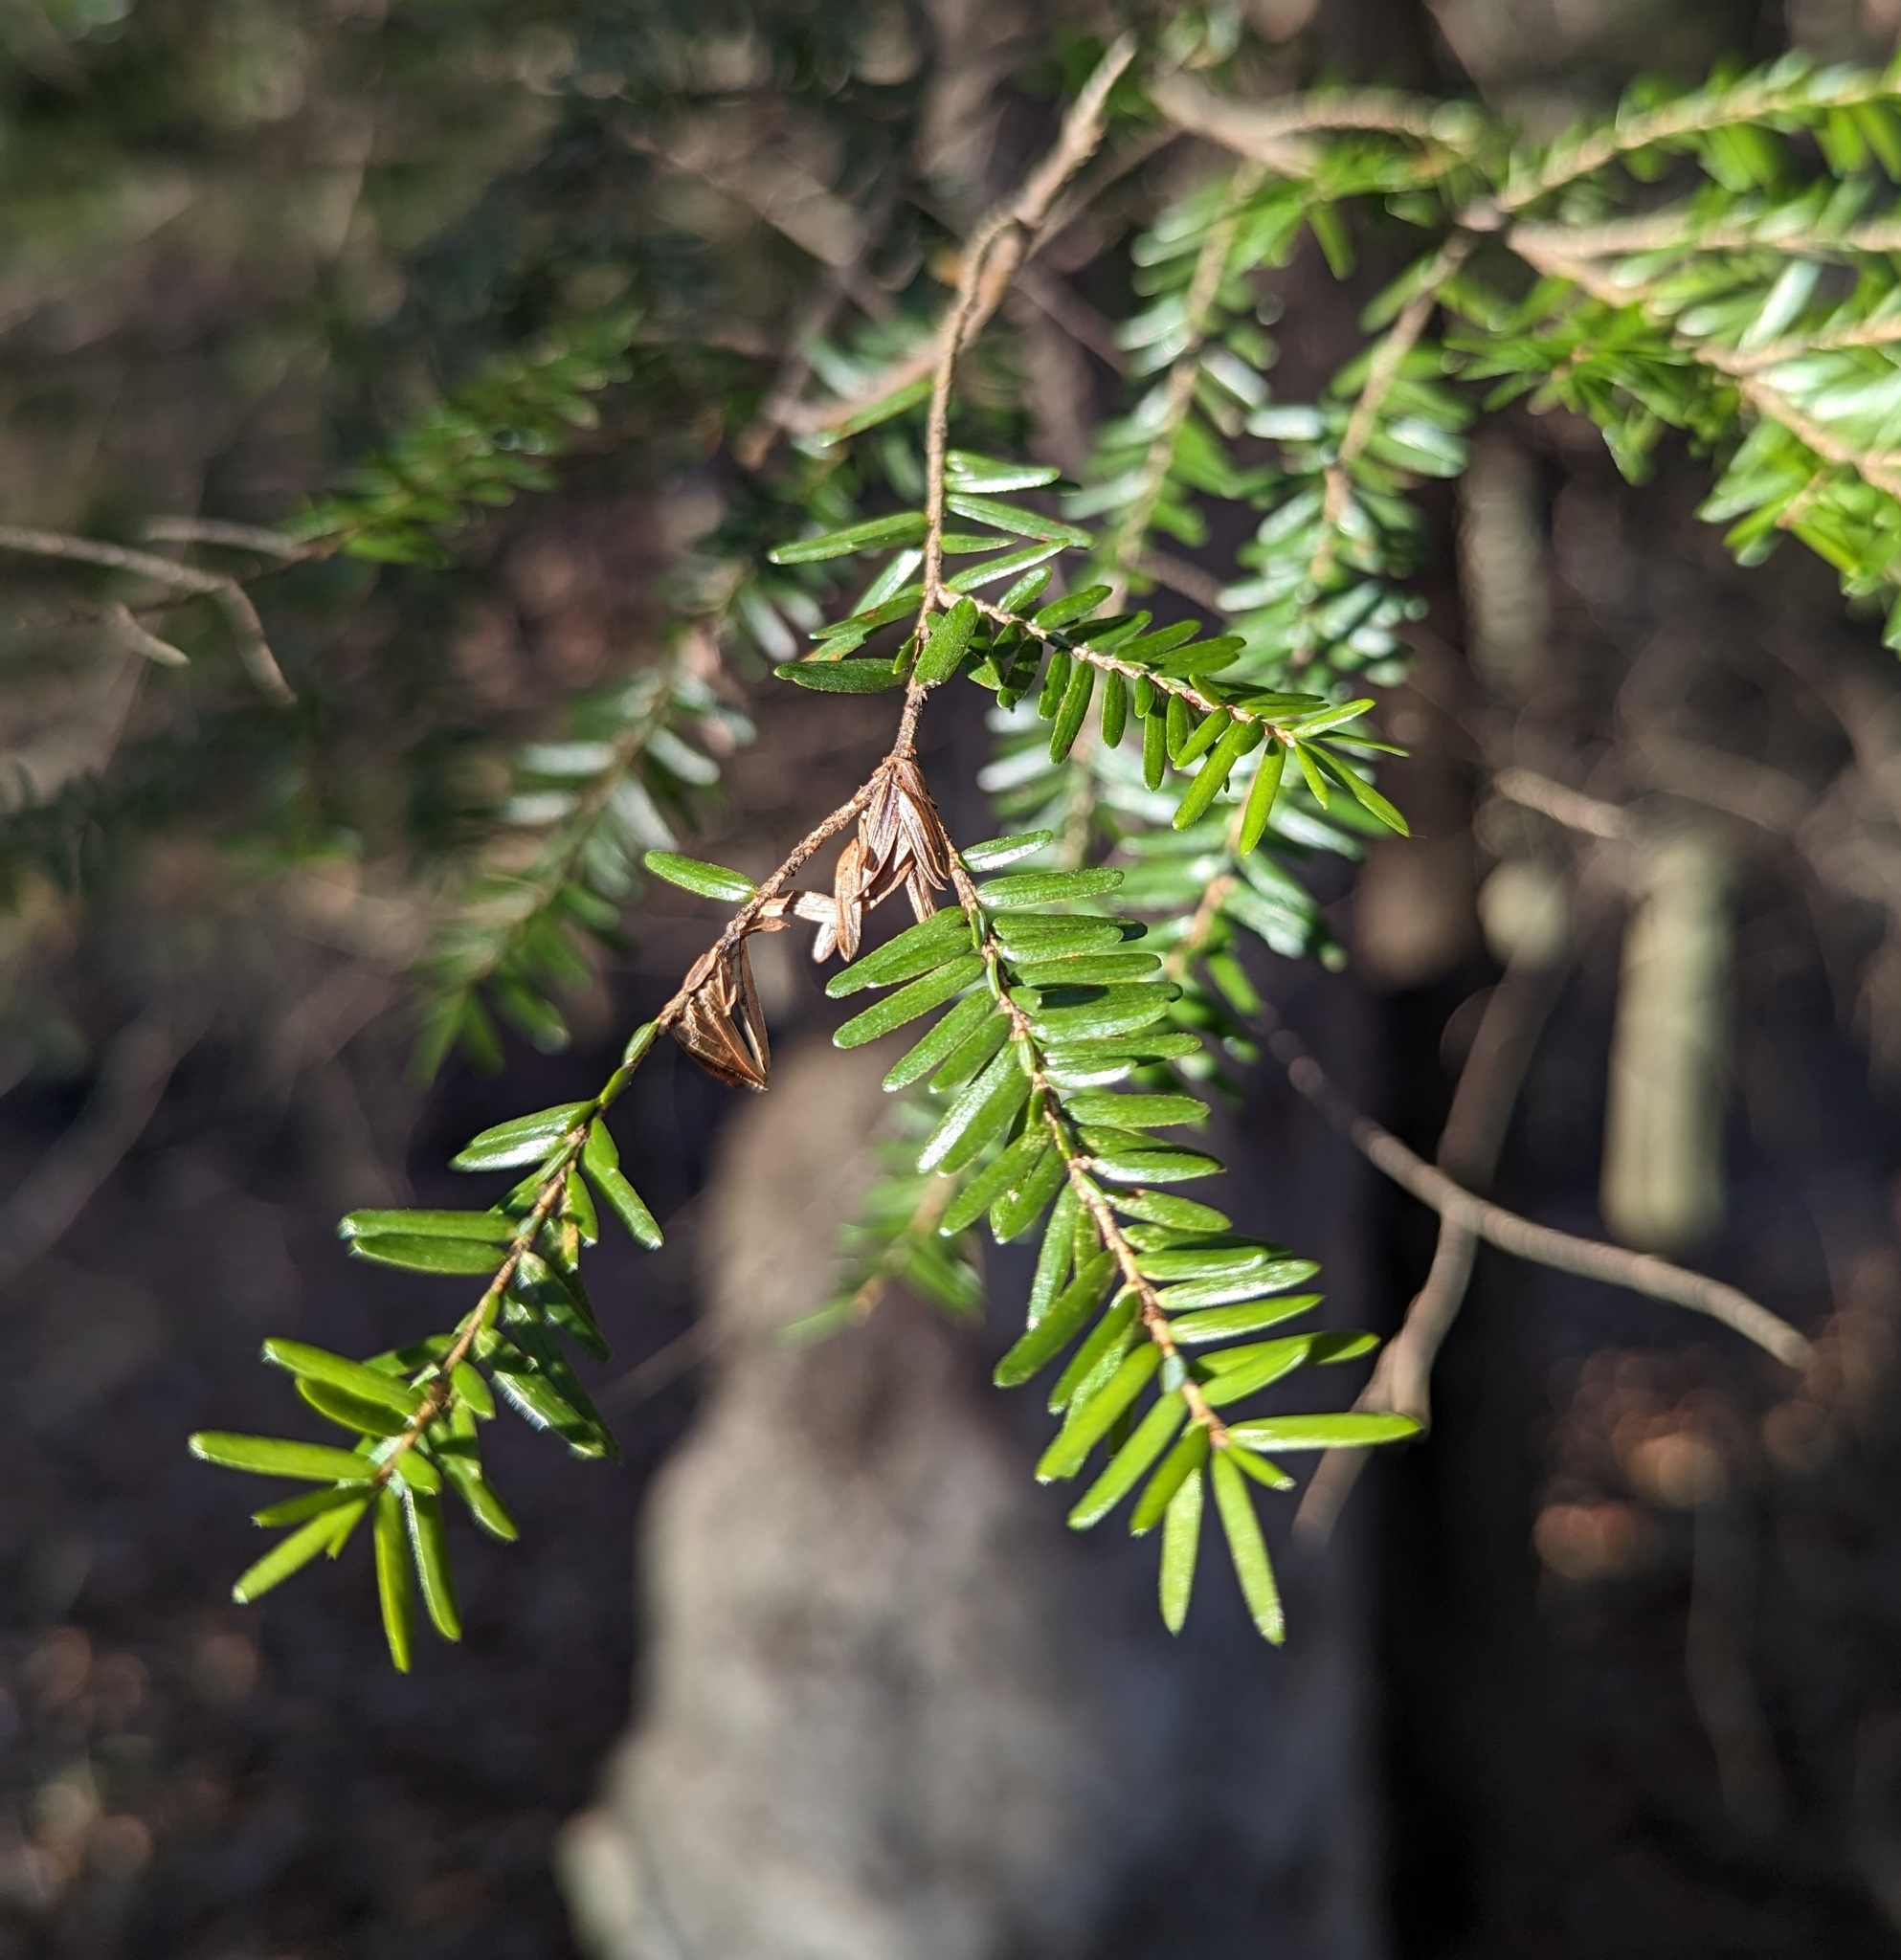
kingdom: Plantae
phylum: Tracheophyta
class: Pinopsida
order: Pinales
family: Pinaceae
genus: Tsuga
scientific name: Tsuga canadensis
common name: Eastern hemlock
